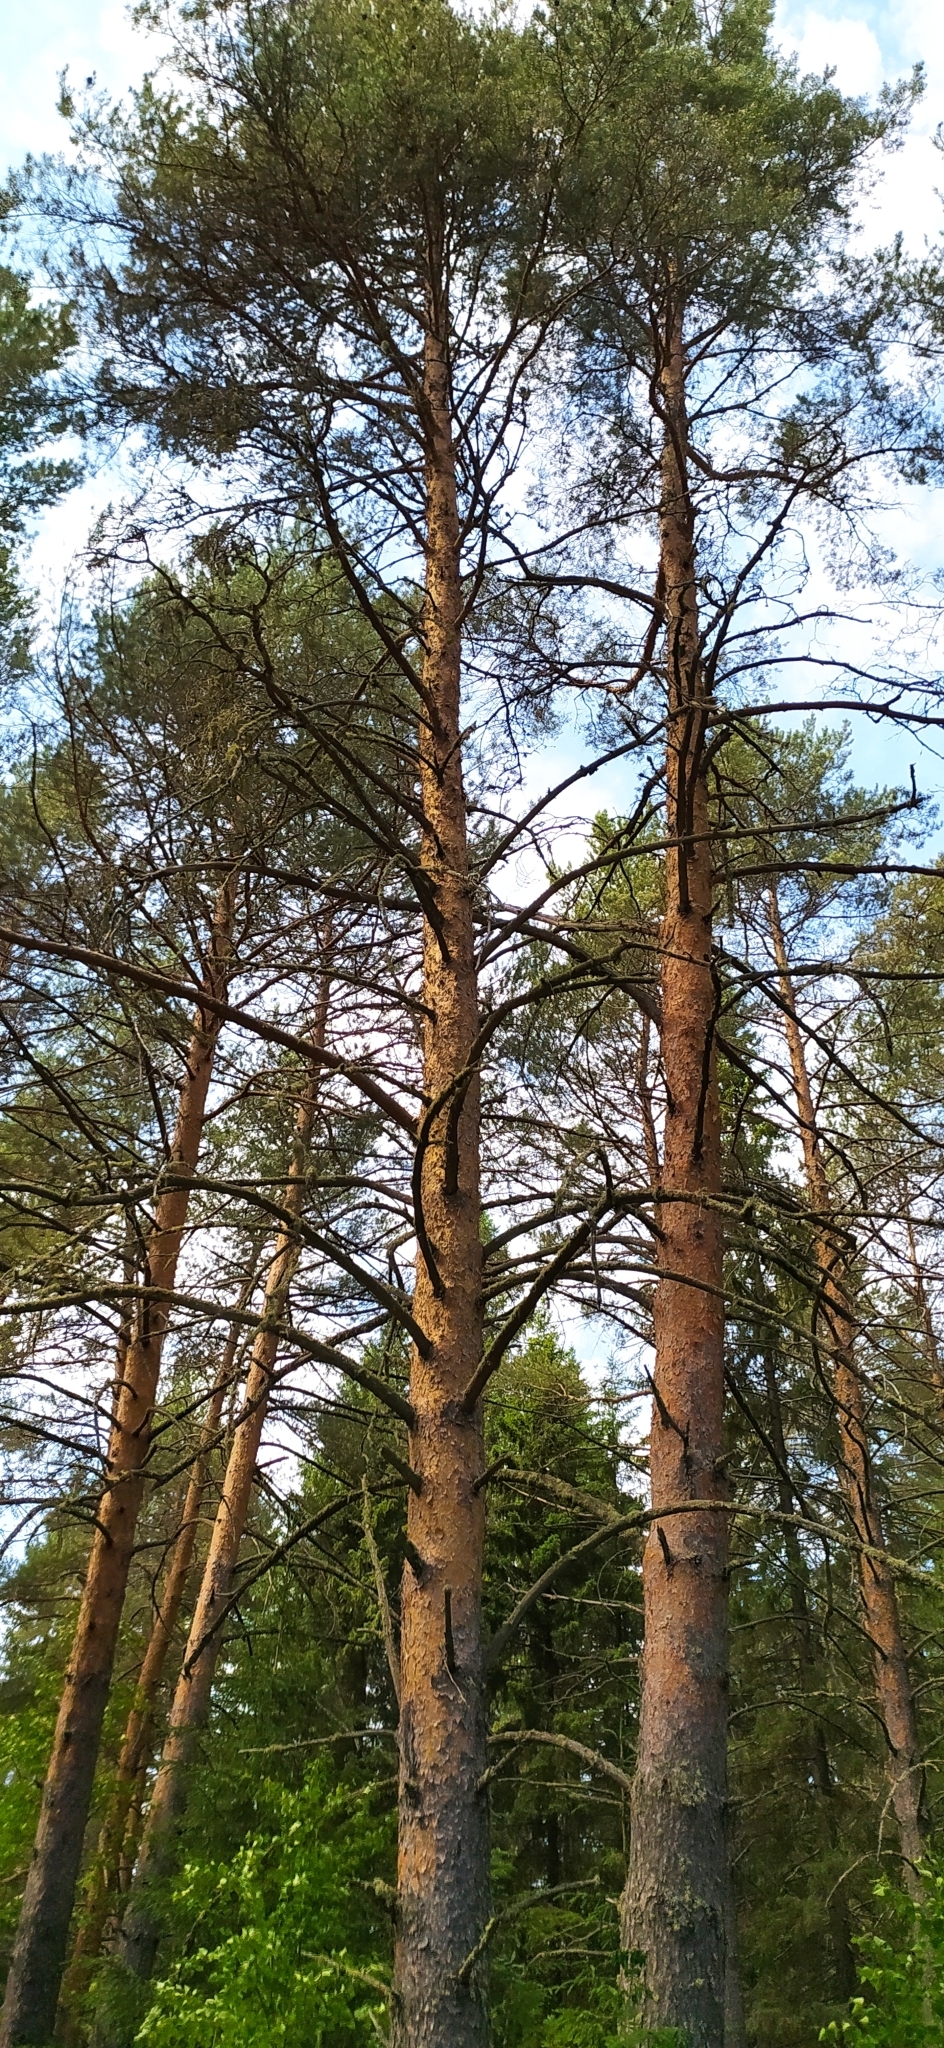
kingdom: Plantae
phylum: Tracheophyta
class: Pinopsida
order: Pinales
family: Pinaceae
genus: Pinus
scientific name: Pinus sylvestris
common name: Scots pine
